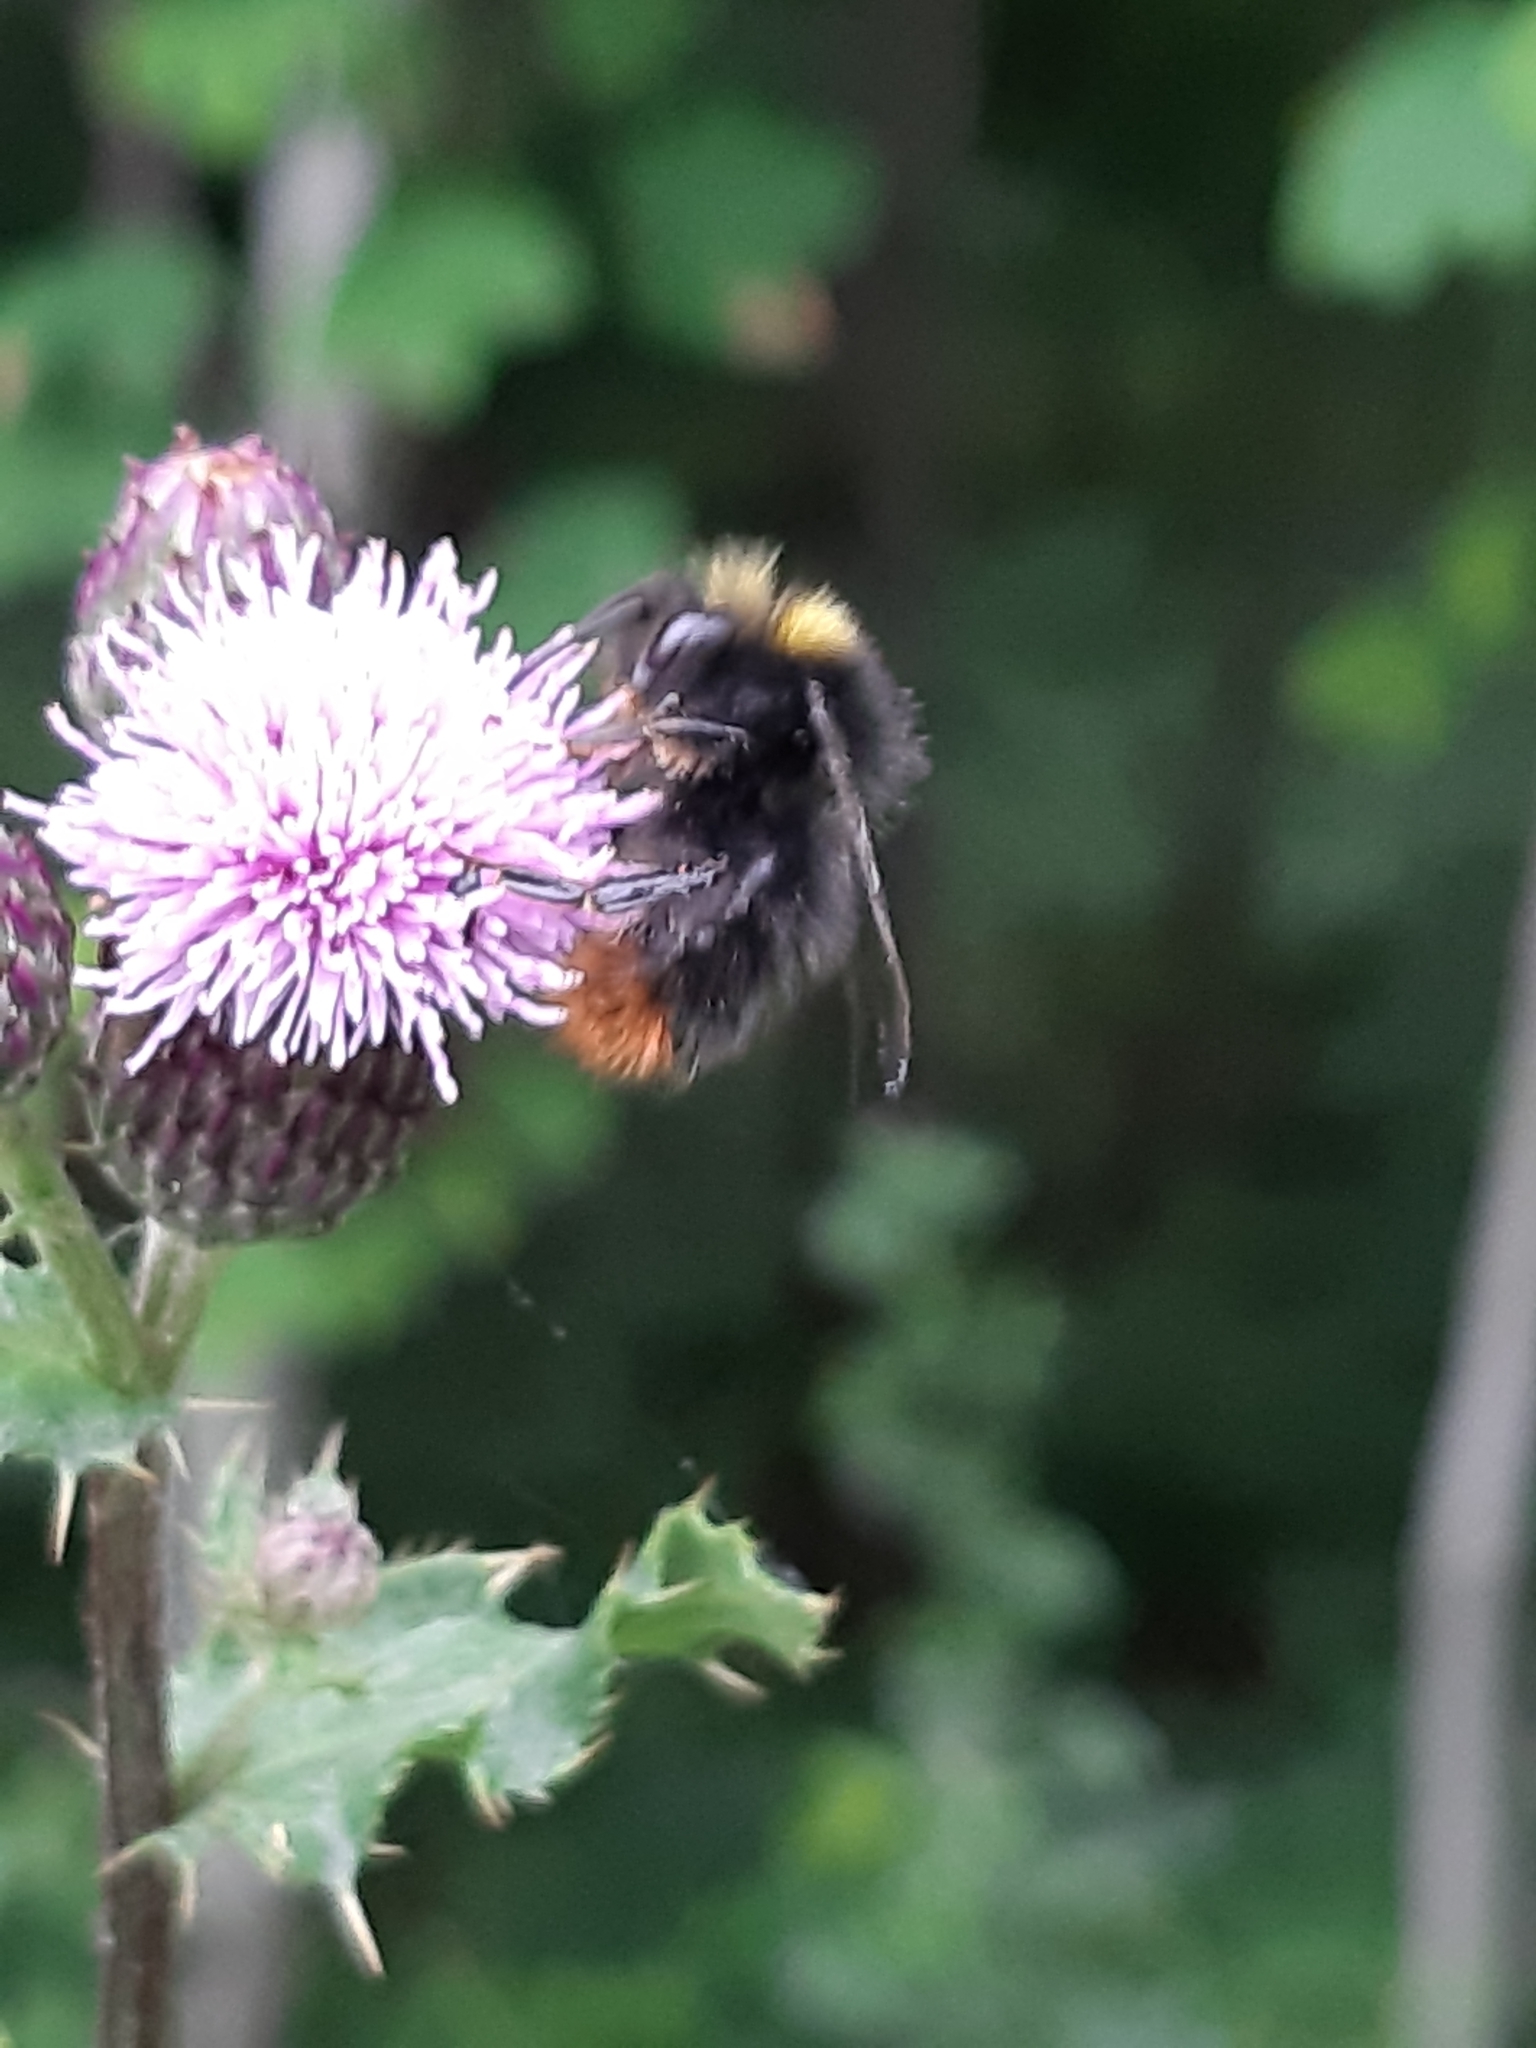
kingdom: Animalia
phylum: Arthropoda
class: Insecta
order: Hymenoptera
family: Apidae
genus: Bombus
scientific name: Bombus lapidarius
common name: Large red-tailed humble-bee
